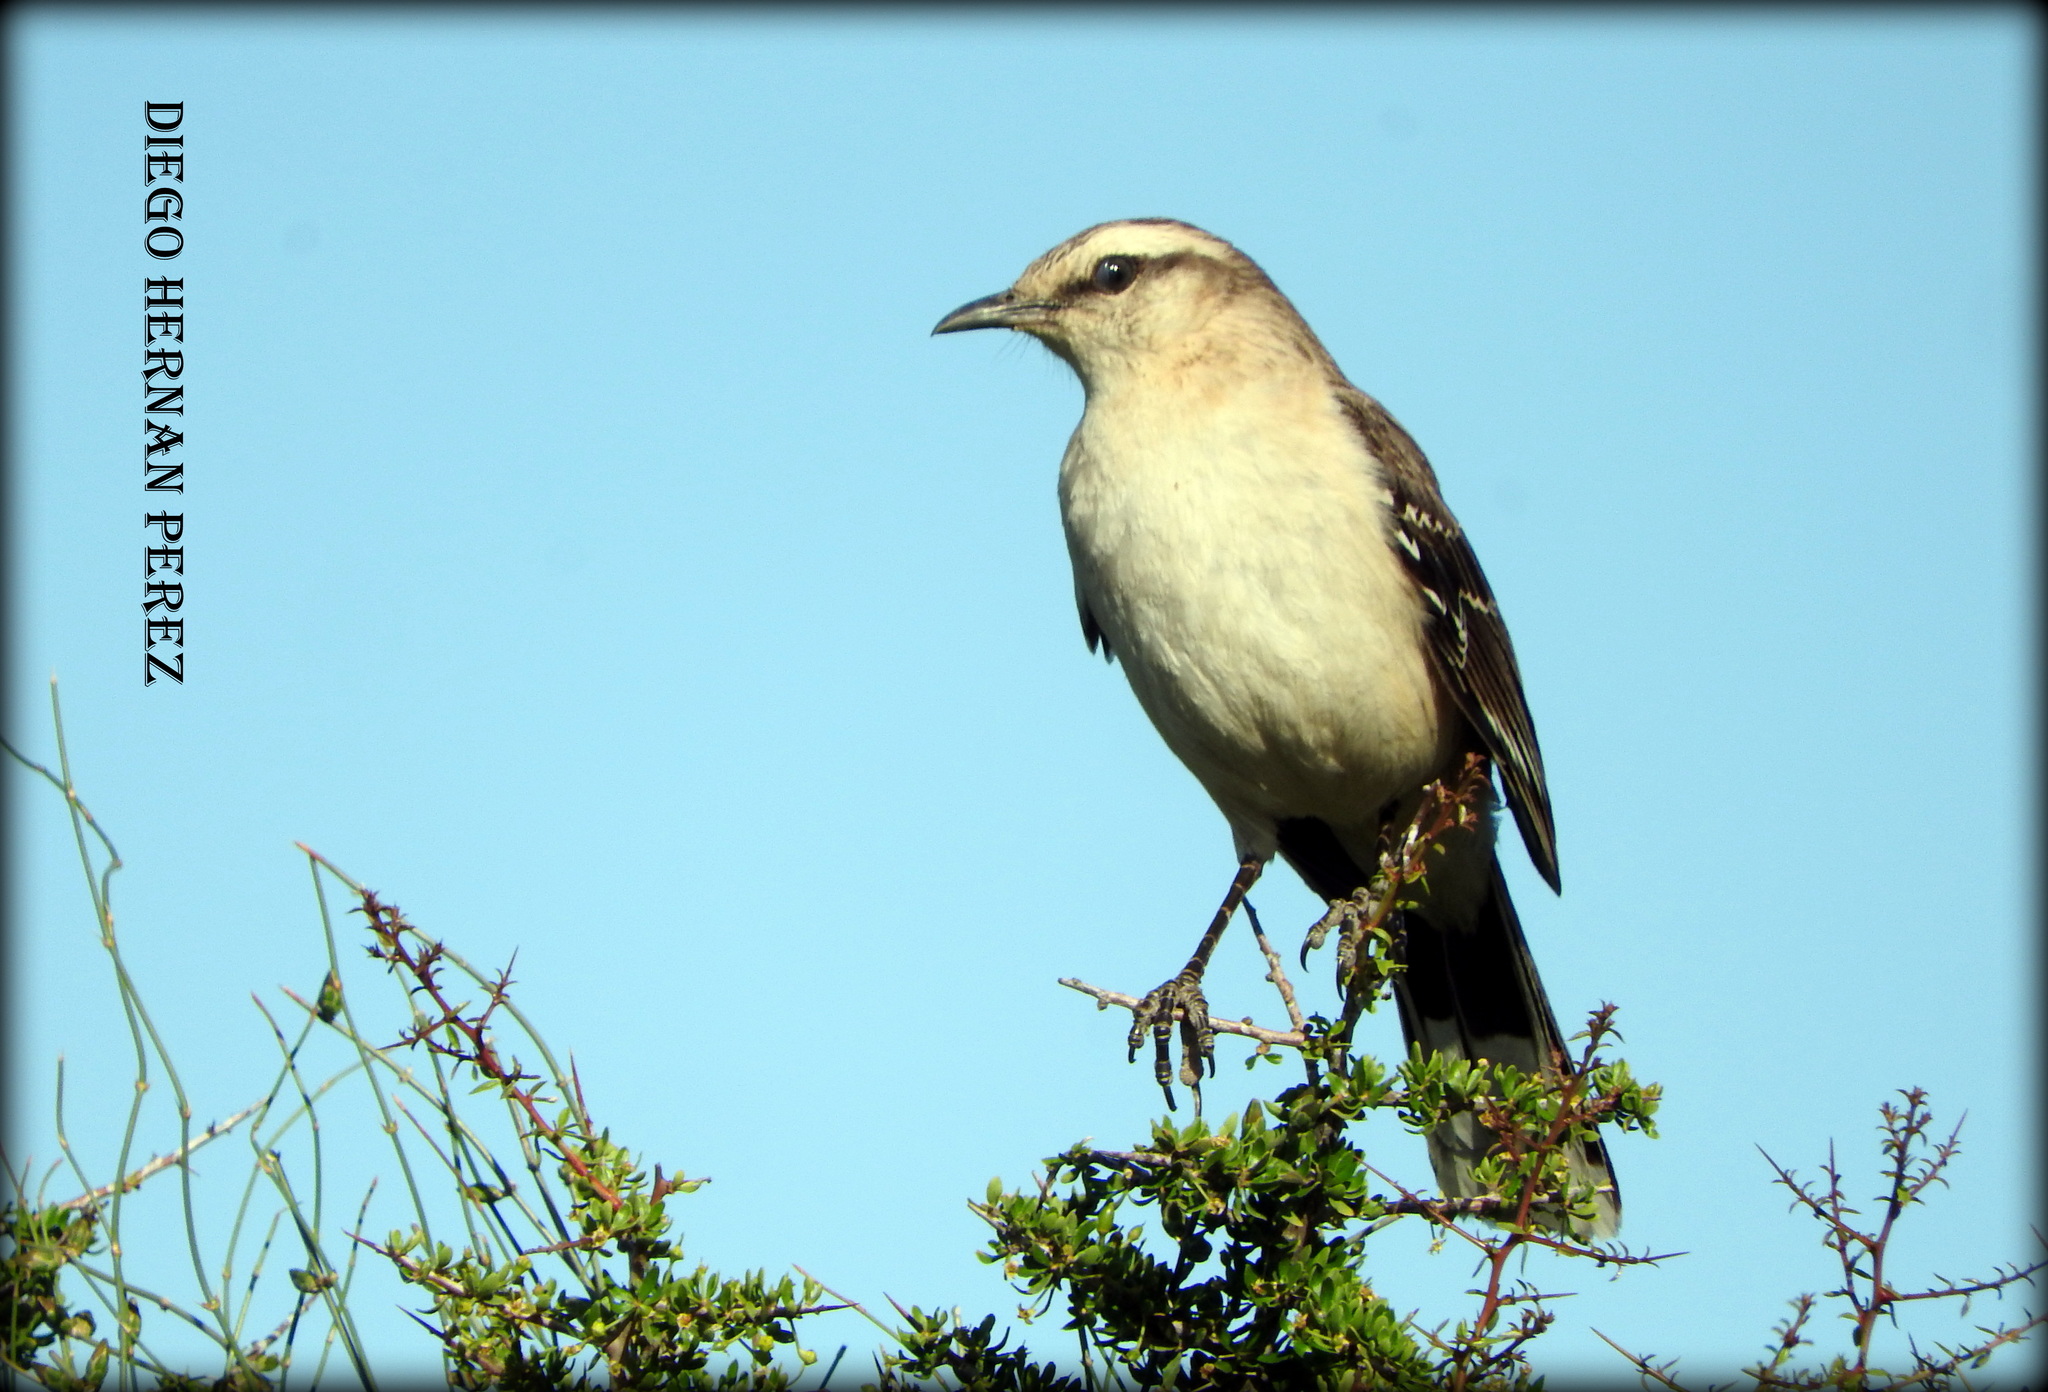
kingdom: Animalia
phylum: Chordata
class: Aves
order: Passeriformes
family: Mimidae
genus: Mimus
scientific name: Mimus saturninus
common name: Chalk-browed mockingbird
